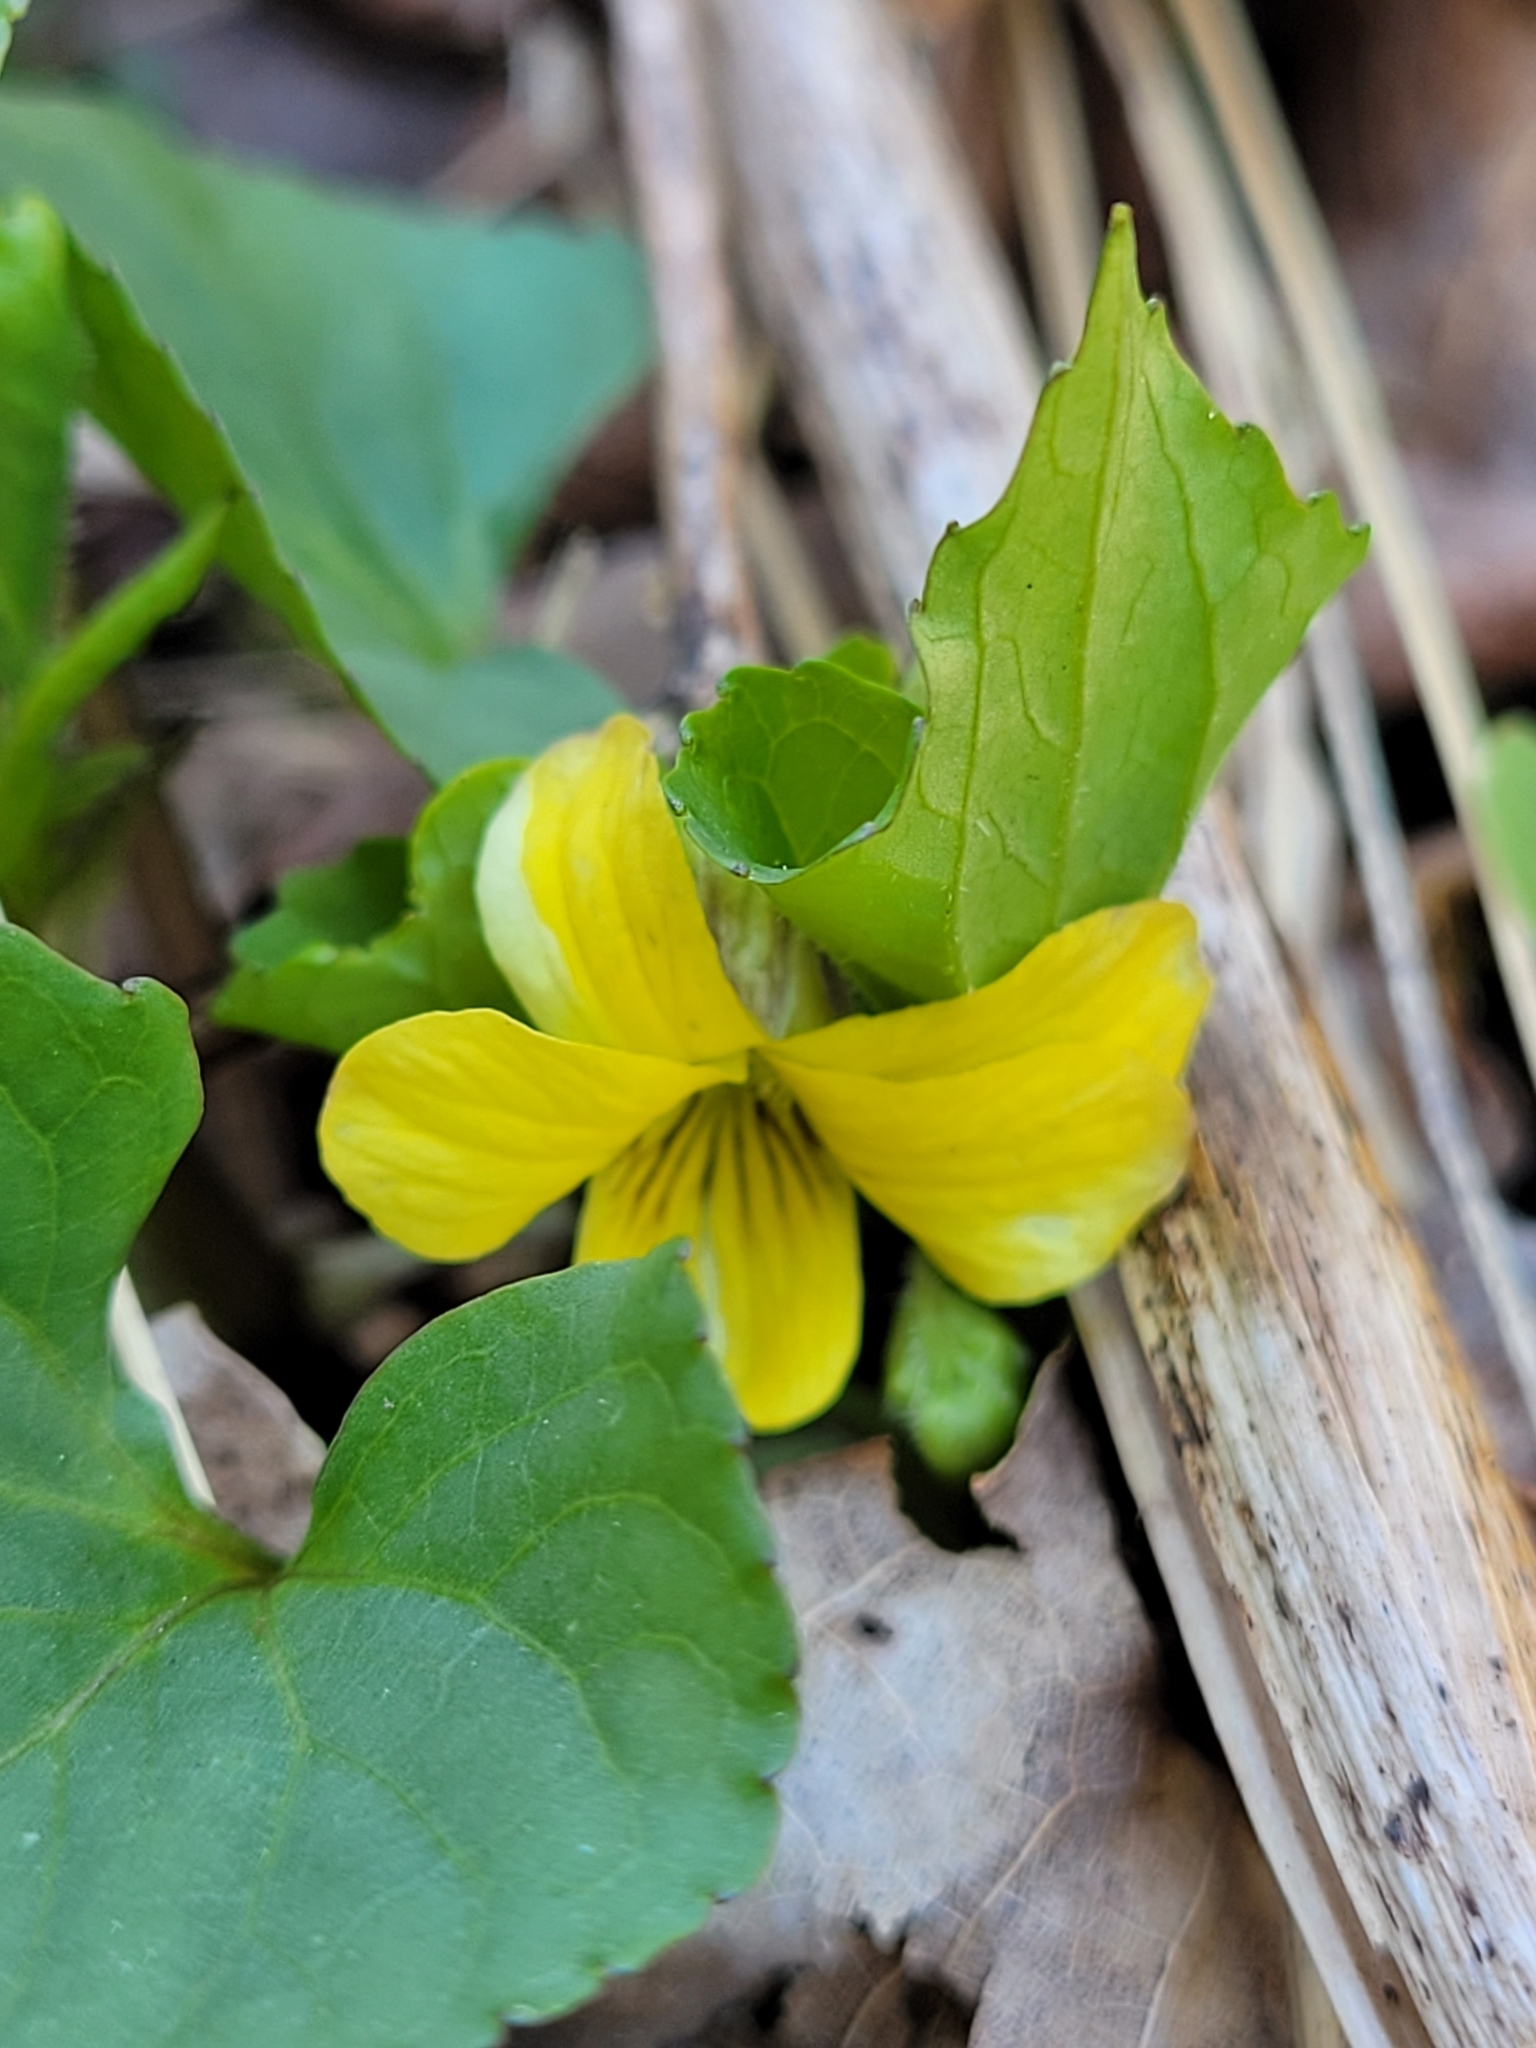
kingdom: Plantae
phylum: Tracheophyta
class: Magnoliopsida
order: Malpighiales
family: Violaceae
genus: Viola
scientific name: Viola eriocarpa
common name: Smooth yellow violet
